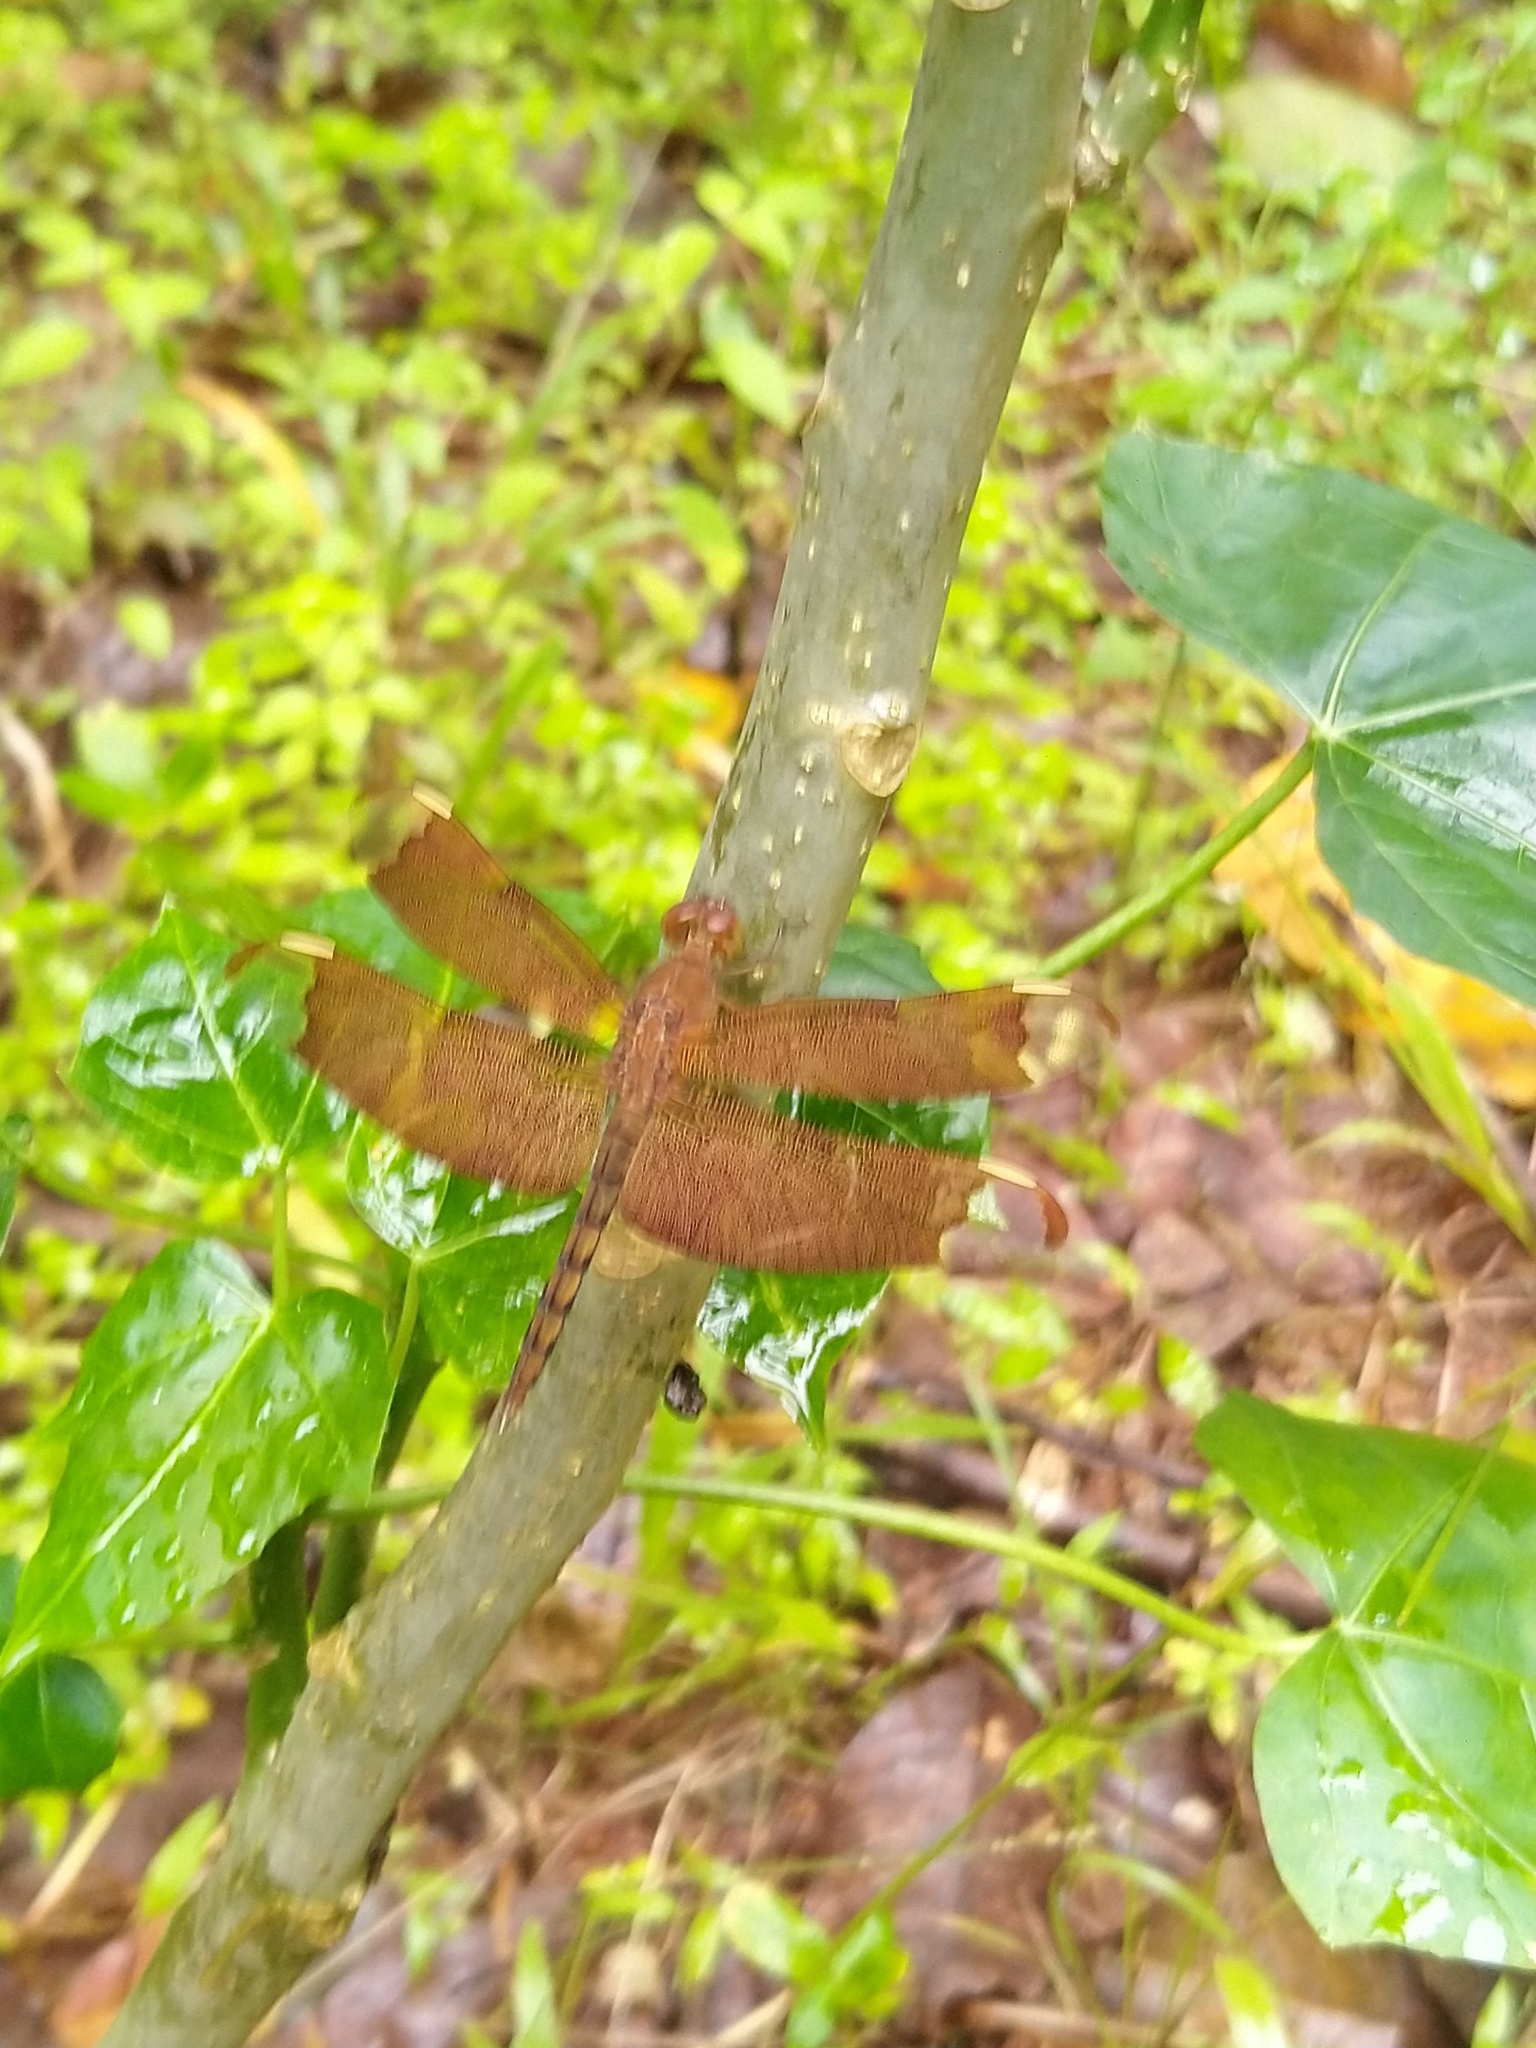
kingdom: Animalia
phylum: Arthropoda
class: Insecta
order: Odonata
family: Libellulidae
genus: Neurothemis
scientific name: Neurothemis fulvia
